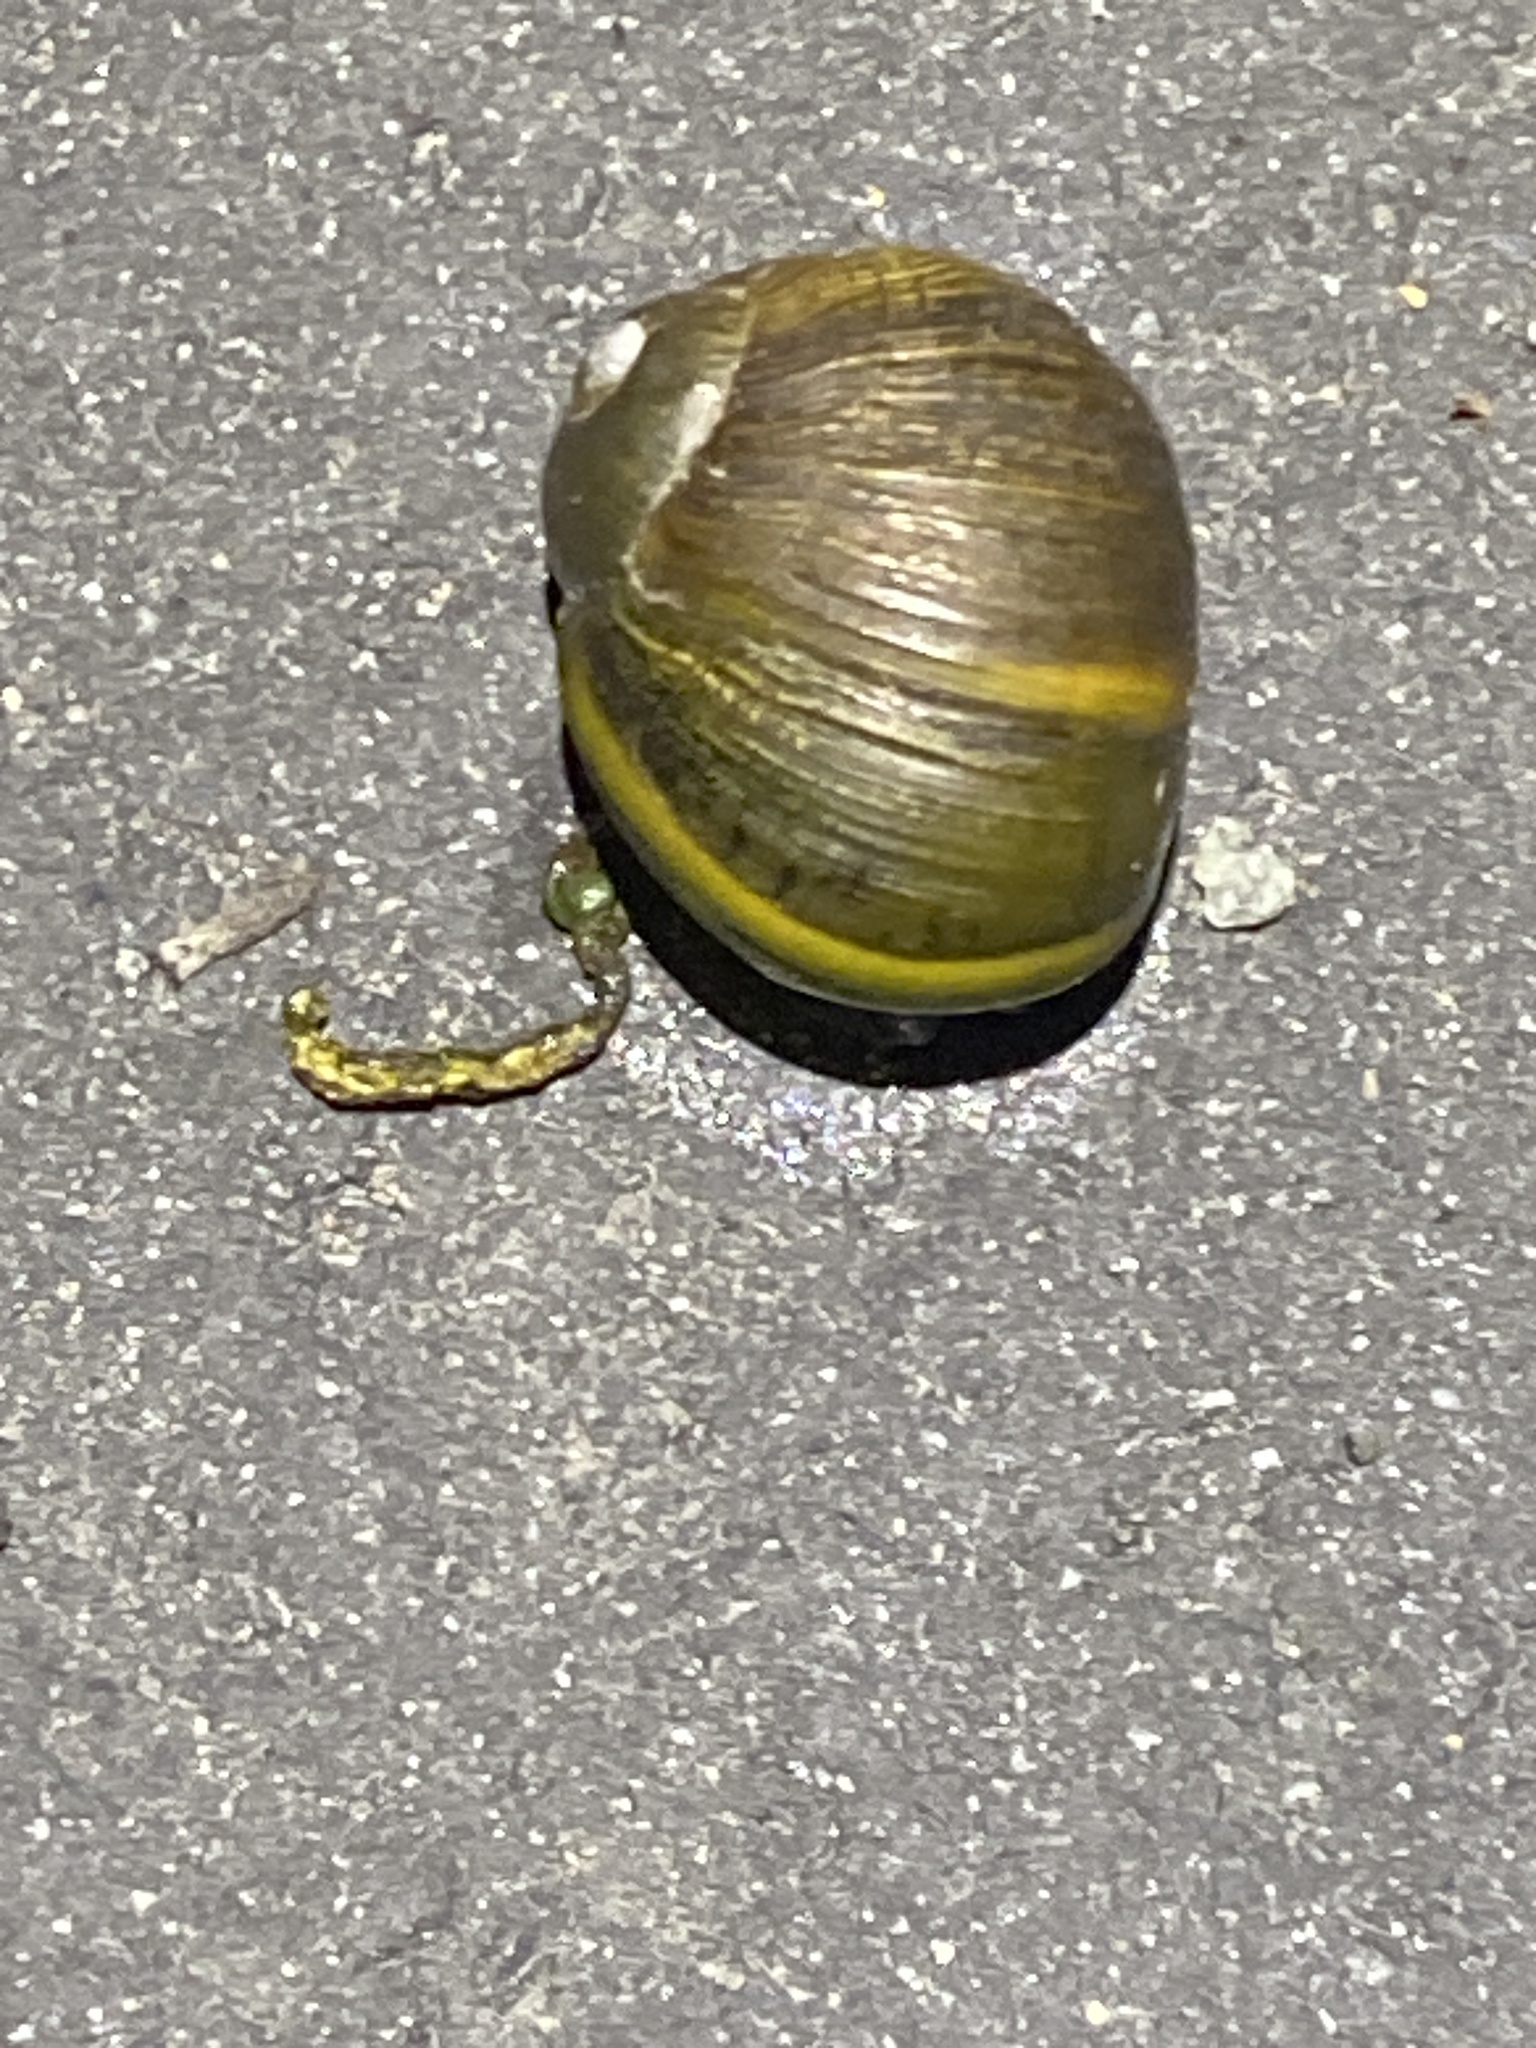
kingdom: Animalia
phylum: Mollusca
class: Gastropoda
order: Stylommatophora
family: Helicidae
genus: Cantareus
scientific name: Cantareus apertus
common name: Green gardensnail
